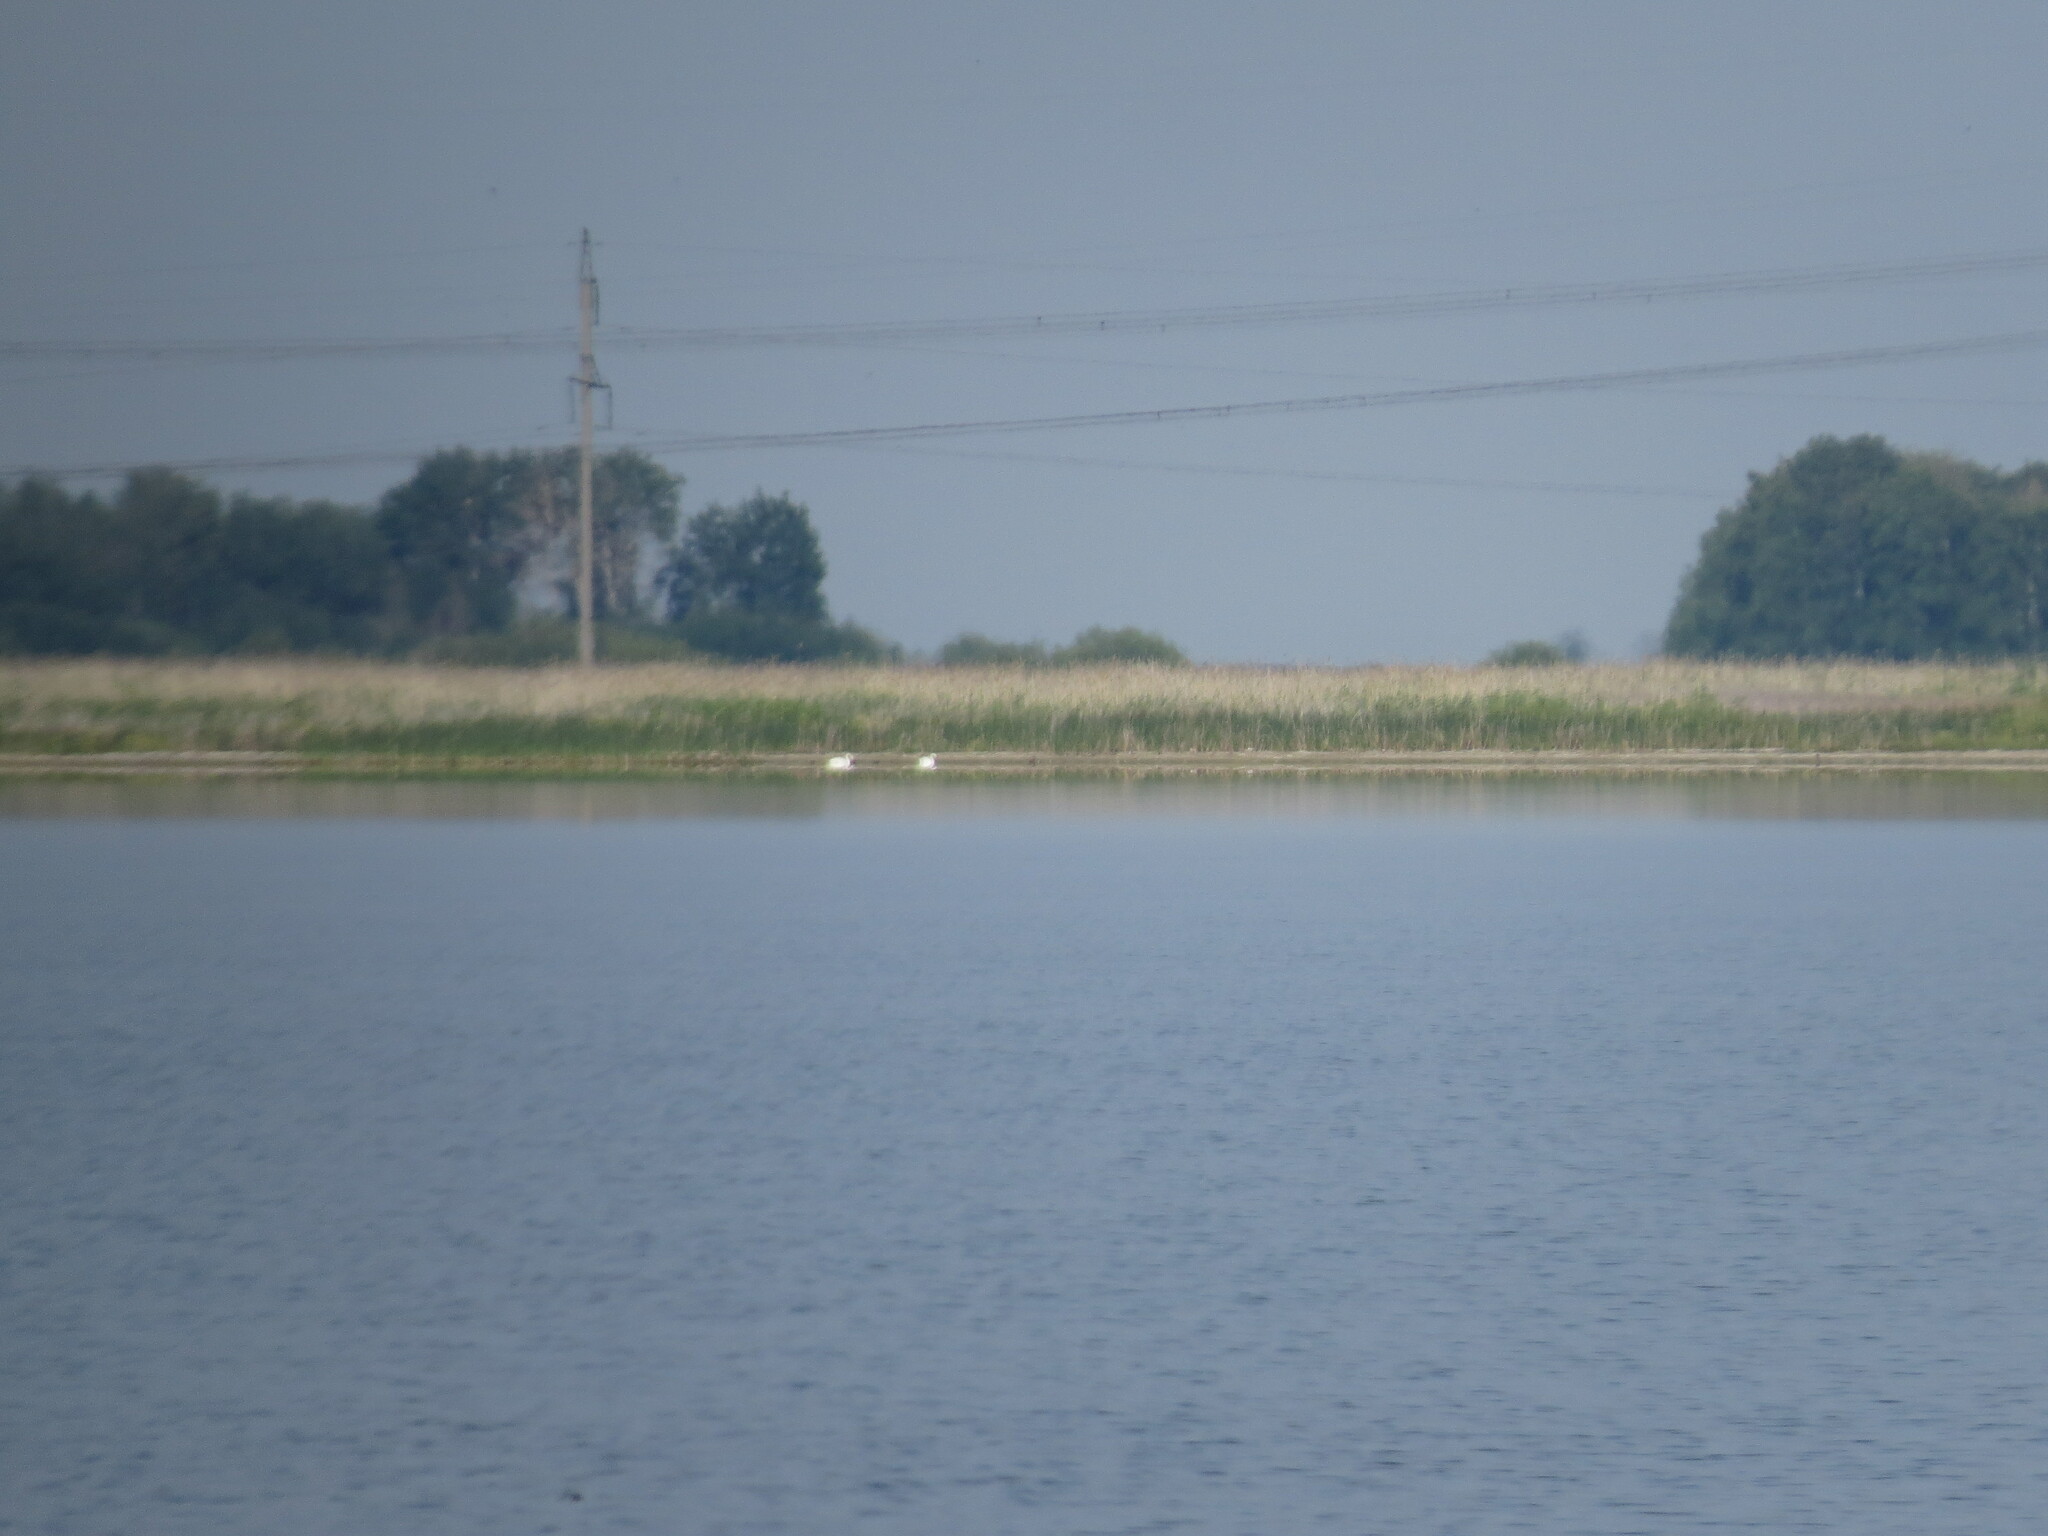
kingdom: Animalia
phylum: Chordata
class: Aves
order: Anseriformes
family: Anatidae
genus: Cygnus
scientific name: Cygnus olor
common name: Mute swan
